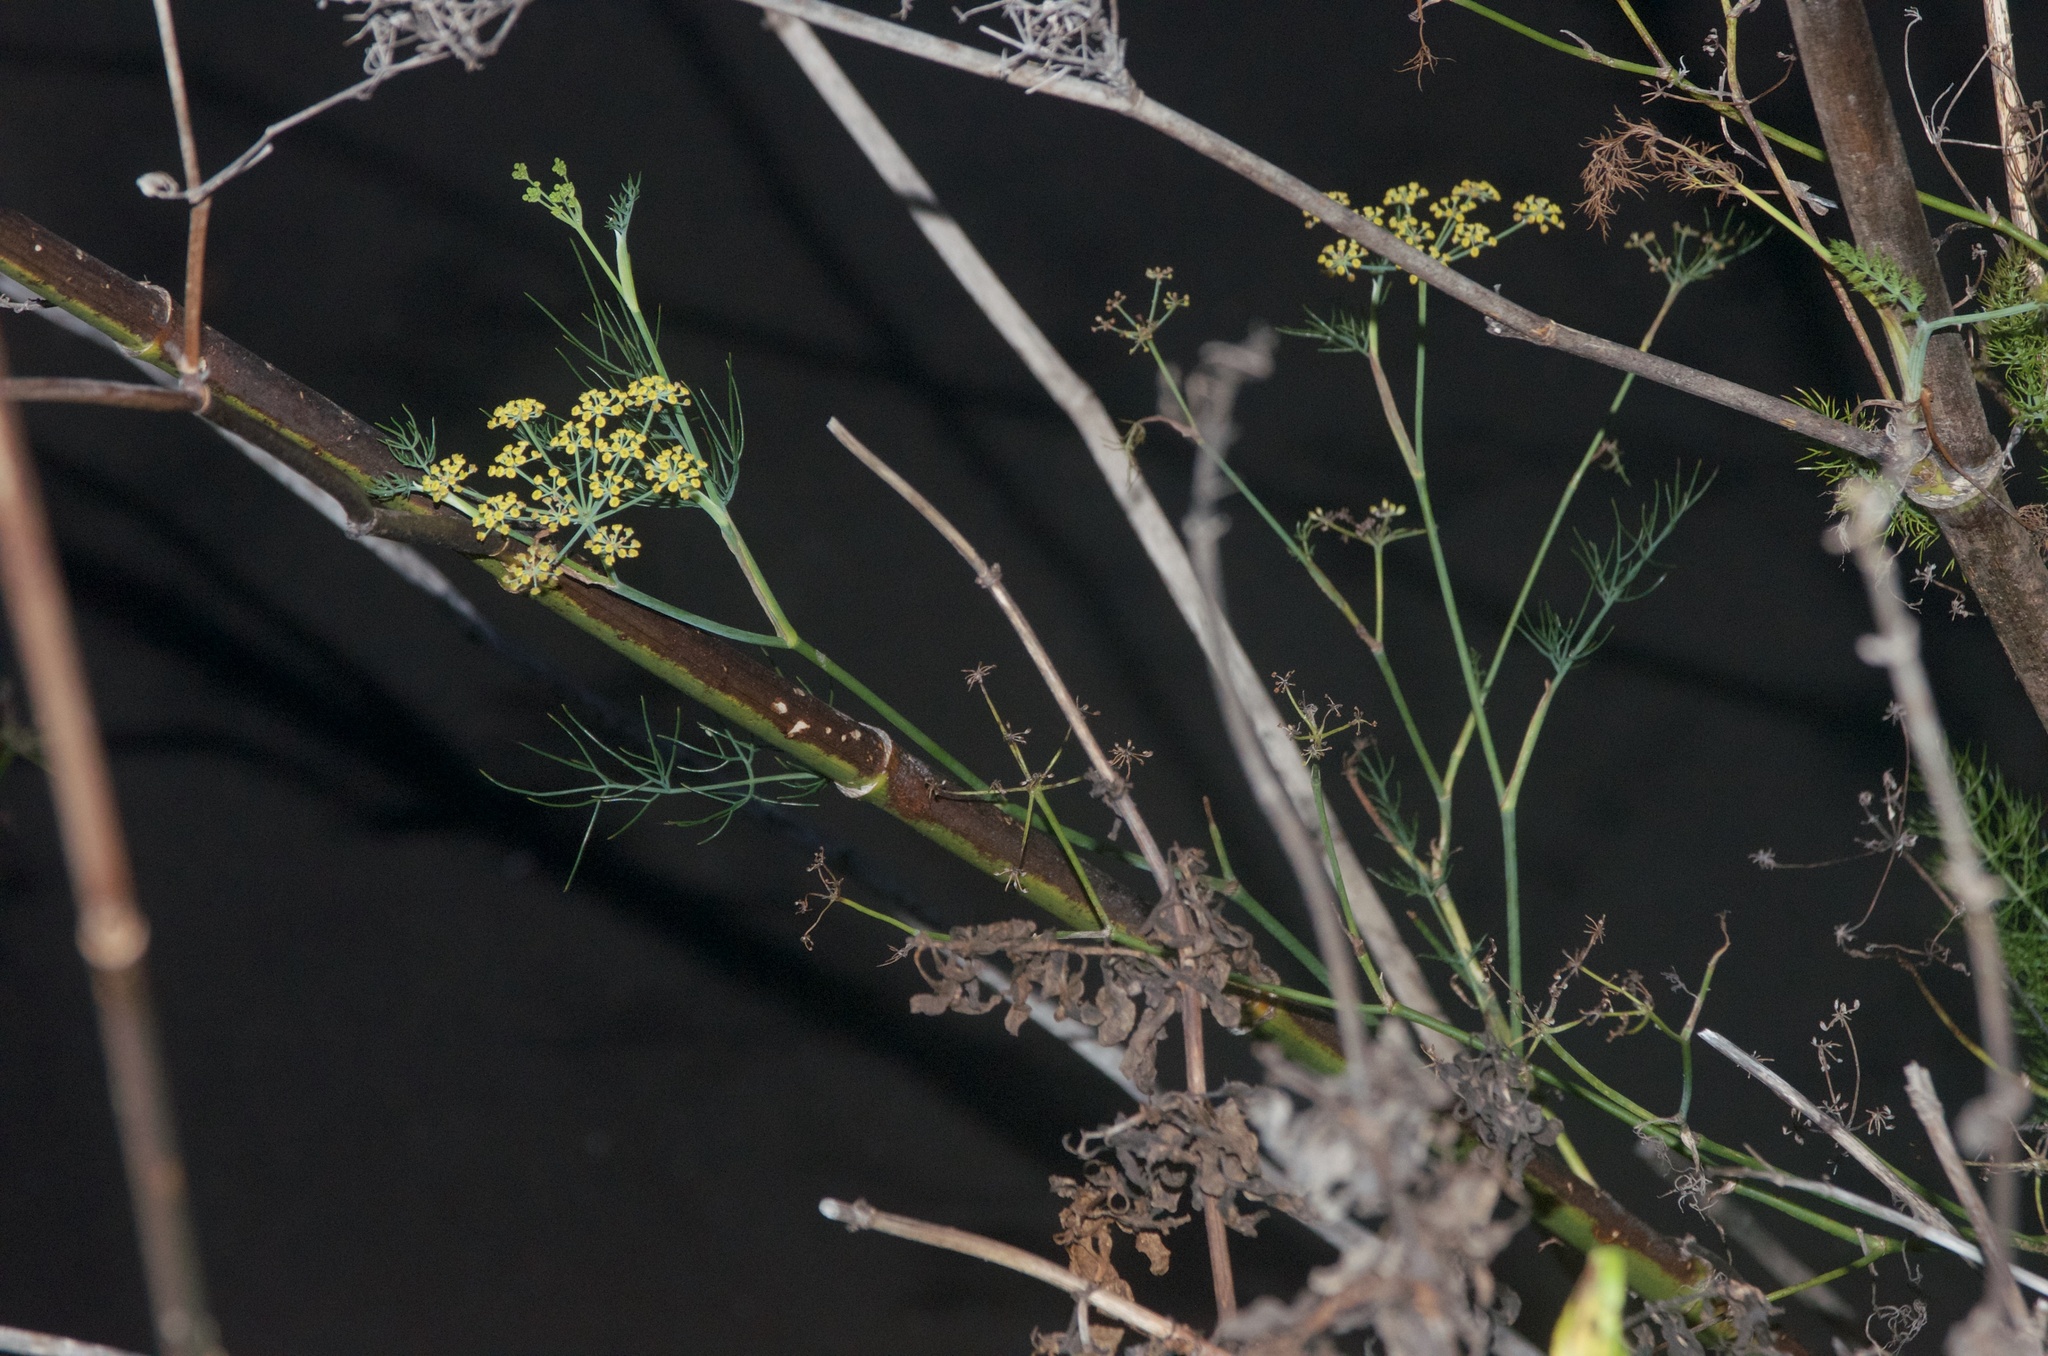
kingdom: Plantae
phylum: Tracheophyta
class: Magnoliopsida
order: Apiales
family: Apiaceae
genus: Foeniculum
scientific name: Foeniculum vulgare
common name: Fennel
